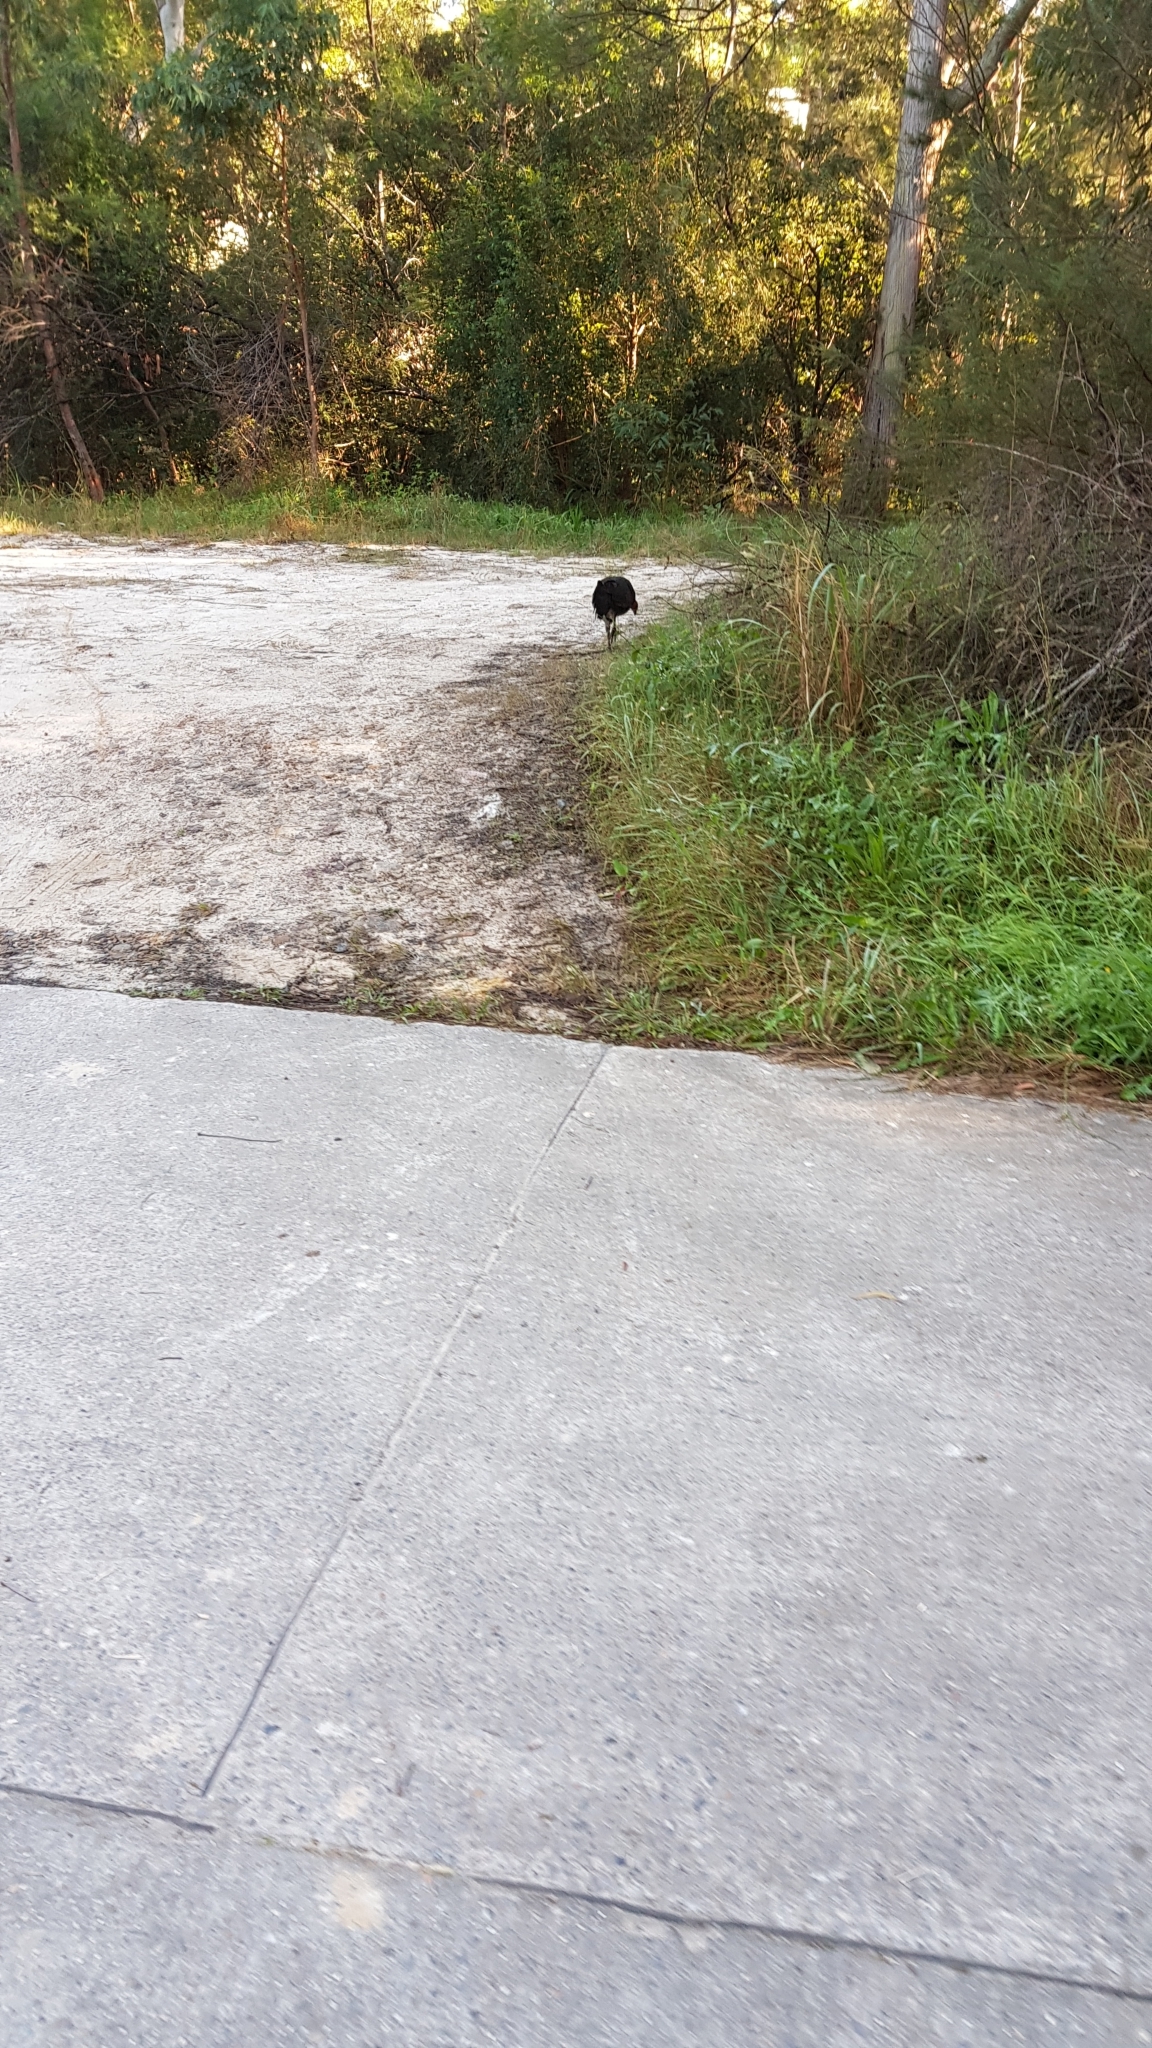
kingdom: Animalia
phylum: Chordata
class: Aves
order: Galliformes
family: Megapodiidae
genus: Alectura
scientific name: Alectura lathami
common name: Australian brushturkey
